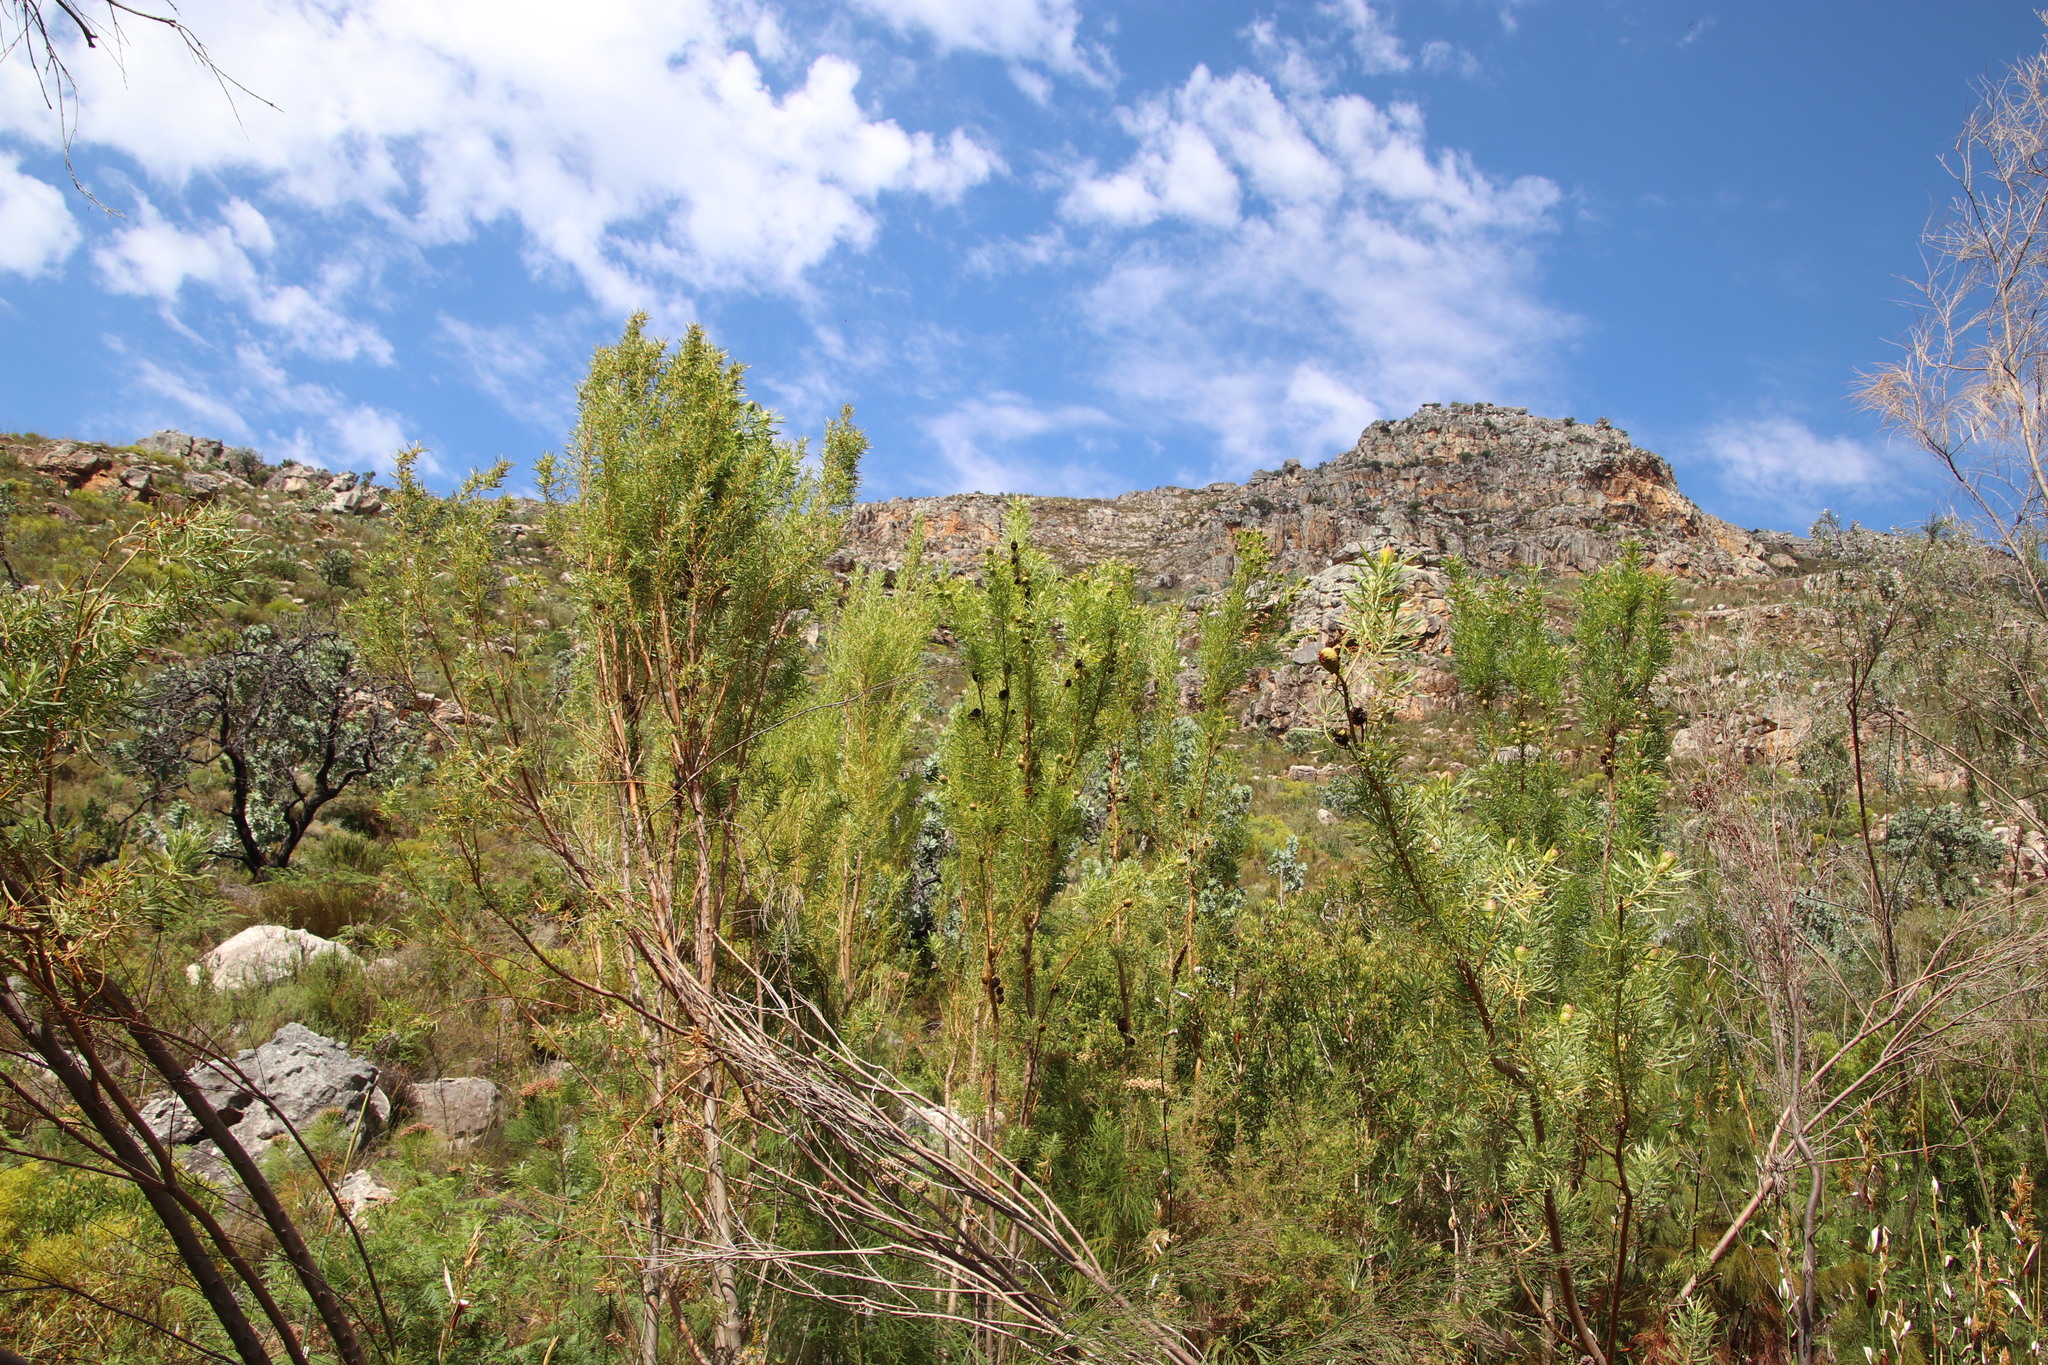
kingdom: Plantae
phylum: Tracheophyta
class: Magnoliopsida
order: Proteales
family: Proteaceae
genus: Leucadendron
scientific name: Leucadendron salicifolium
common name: Common stream conebush
